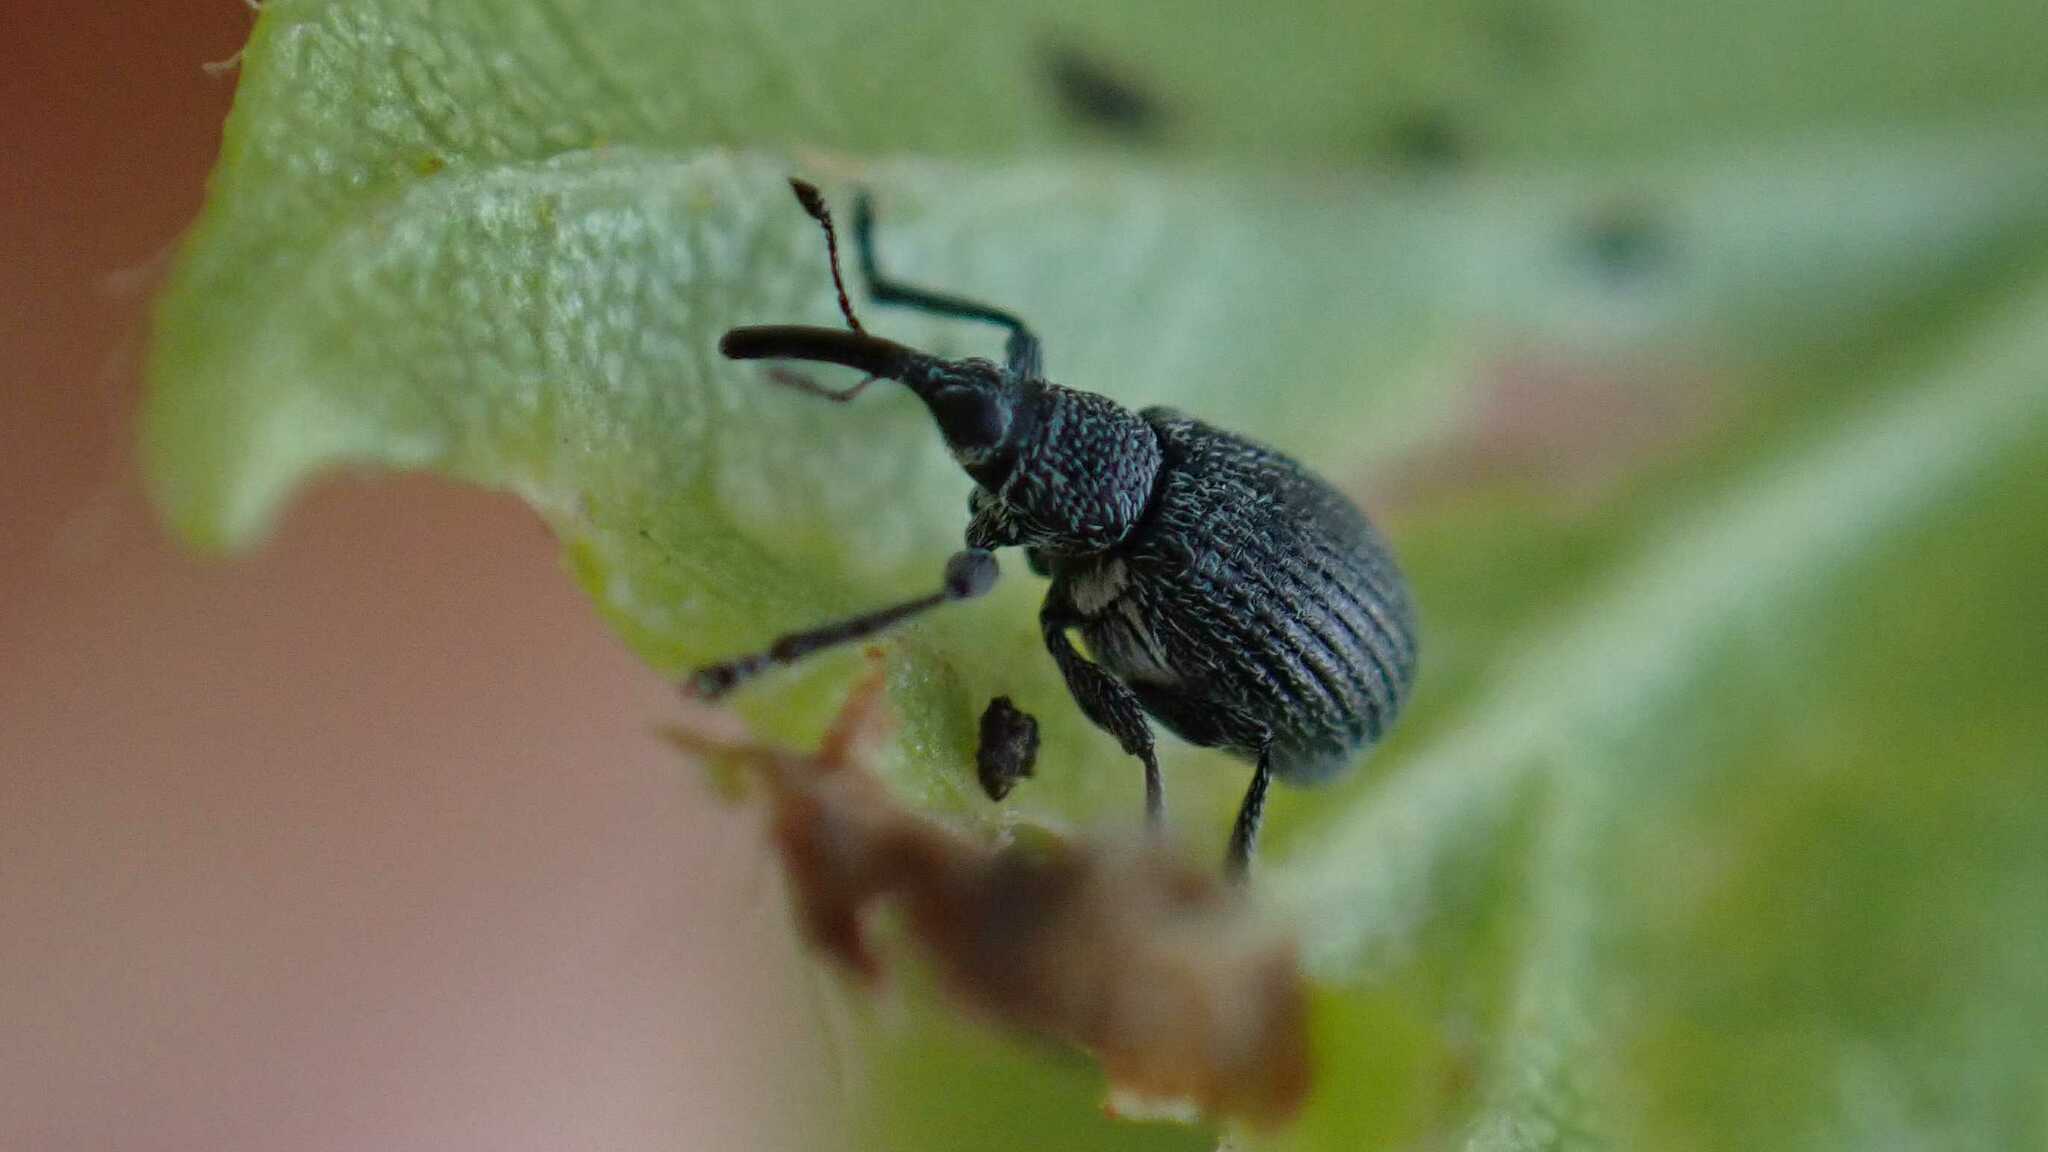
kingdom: Animalia
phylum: Arthropoda
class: Insecta
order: Coleoptera
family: Brentidae
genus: Betulapion
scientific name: Betulapion simile
